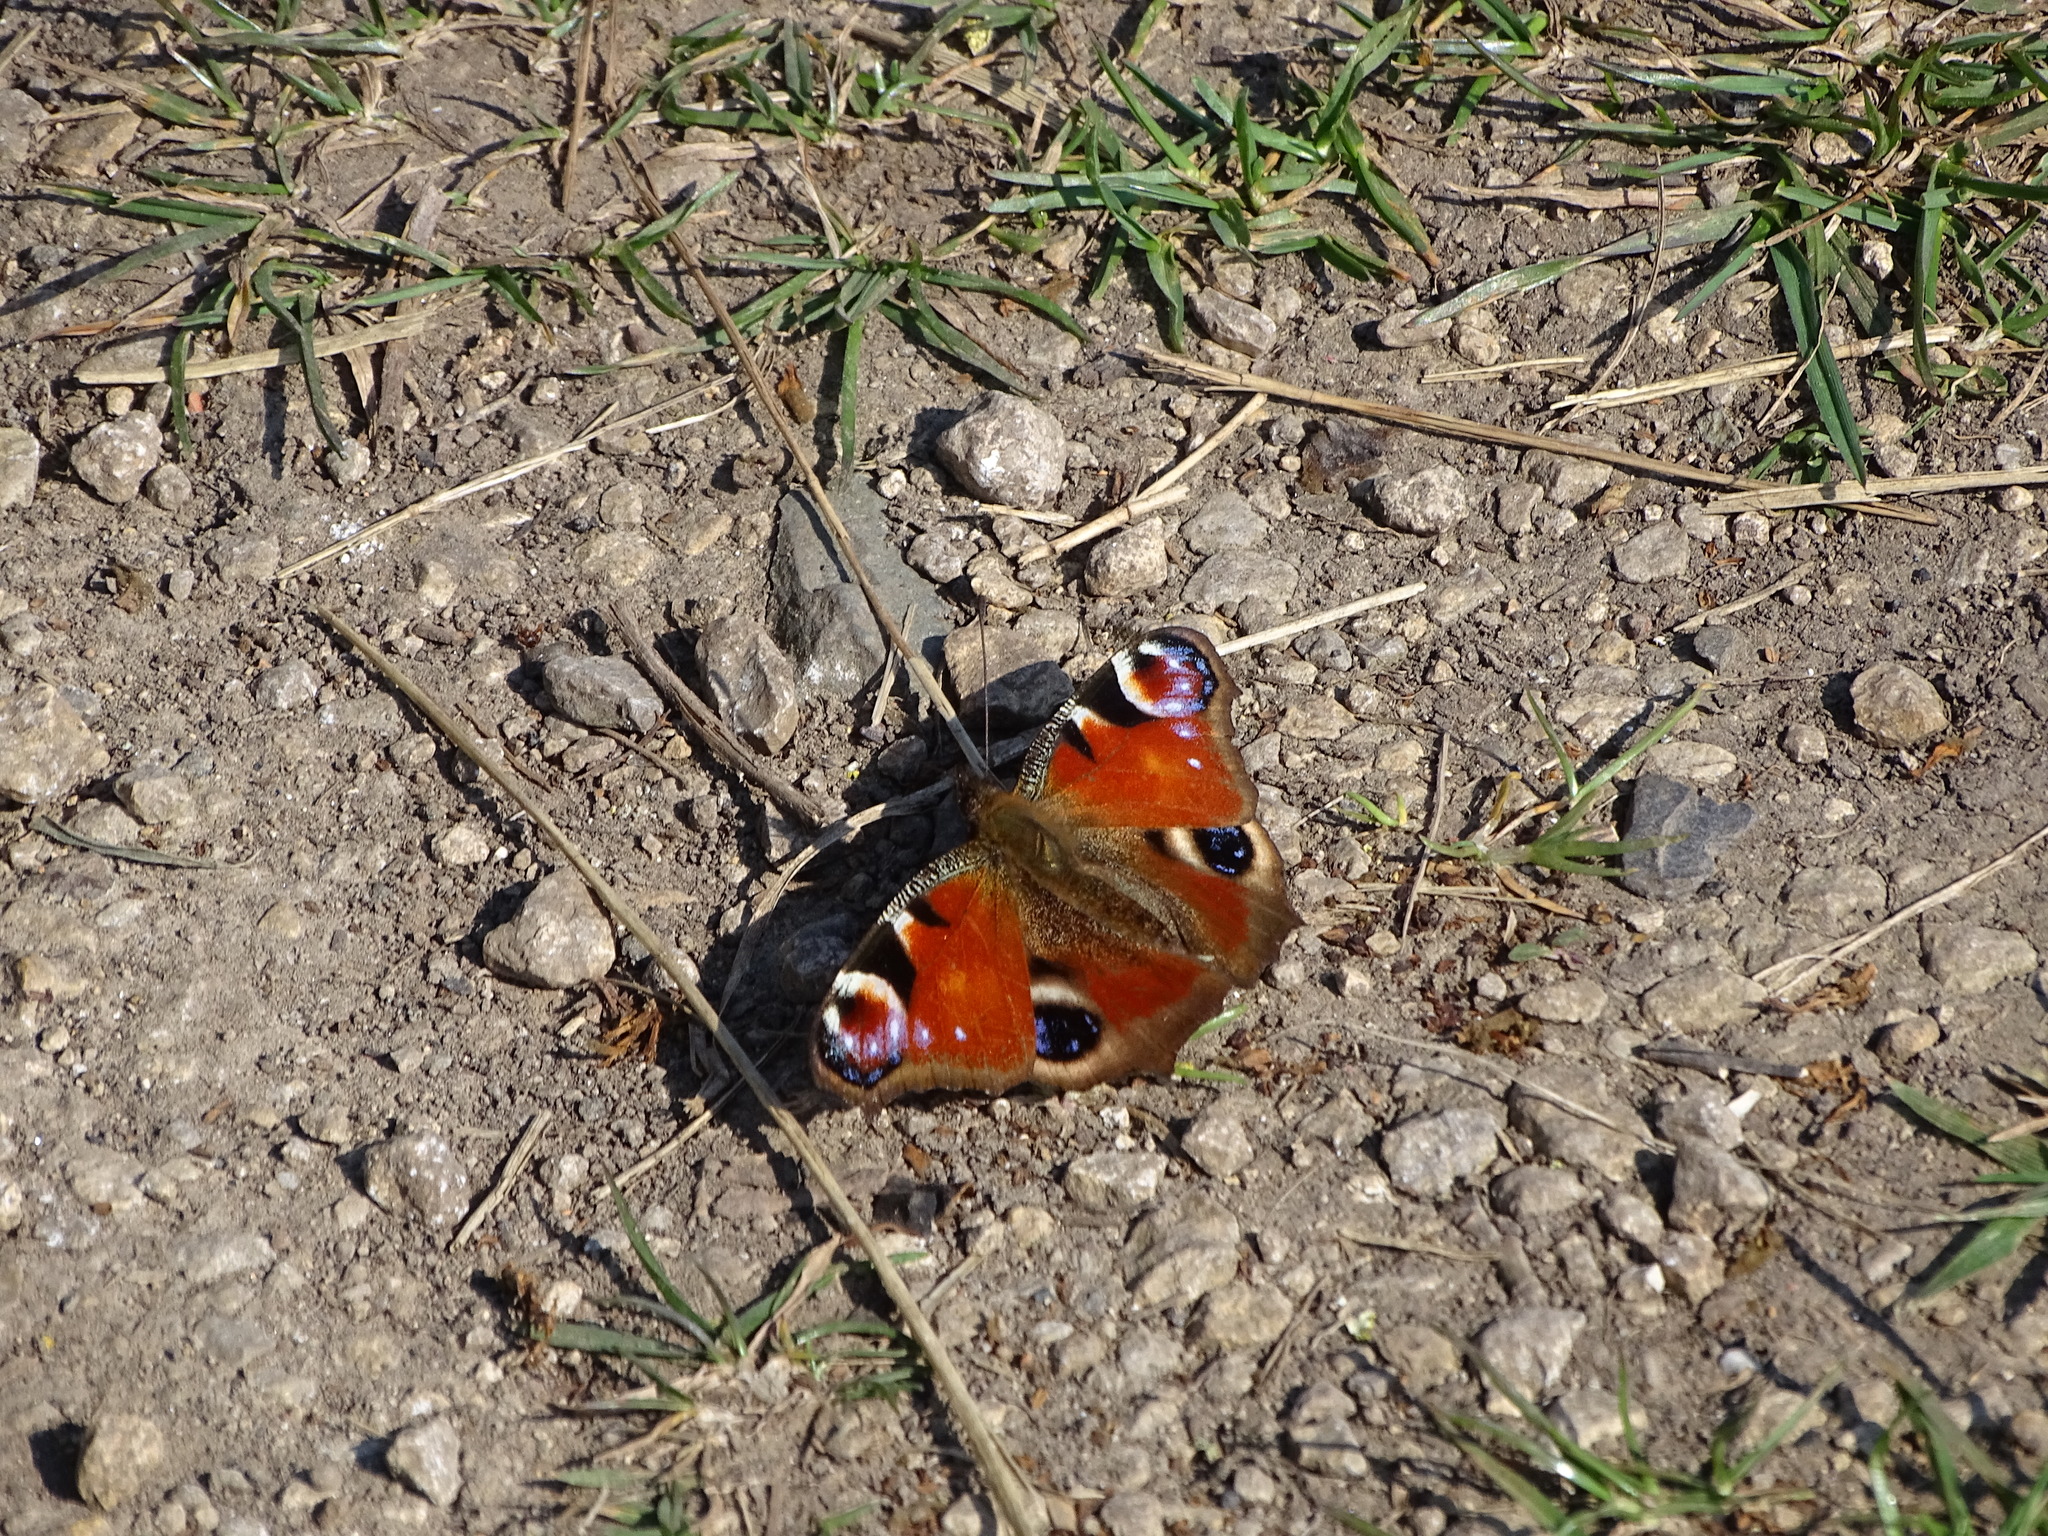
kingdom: Animalia
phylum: Arthropoda
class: Insecta
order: Lepidoptera
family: Nymphalidae
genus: Aglais
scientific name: Aglais io
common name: Peacock
